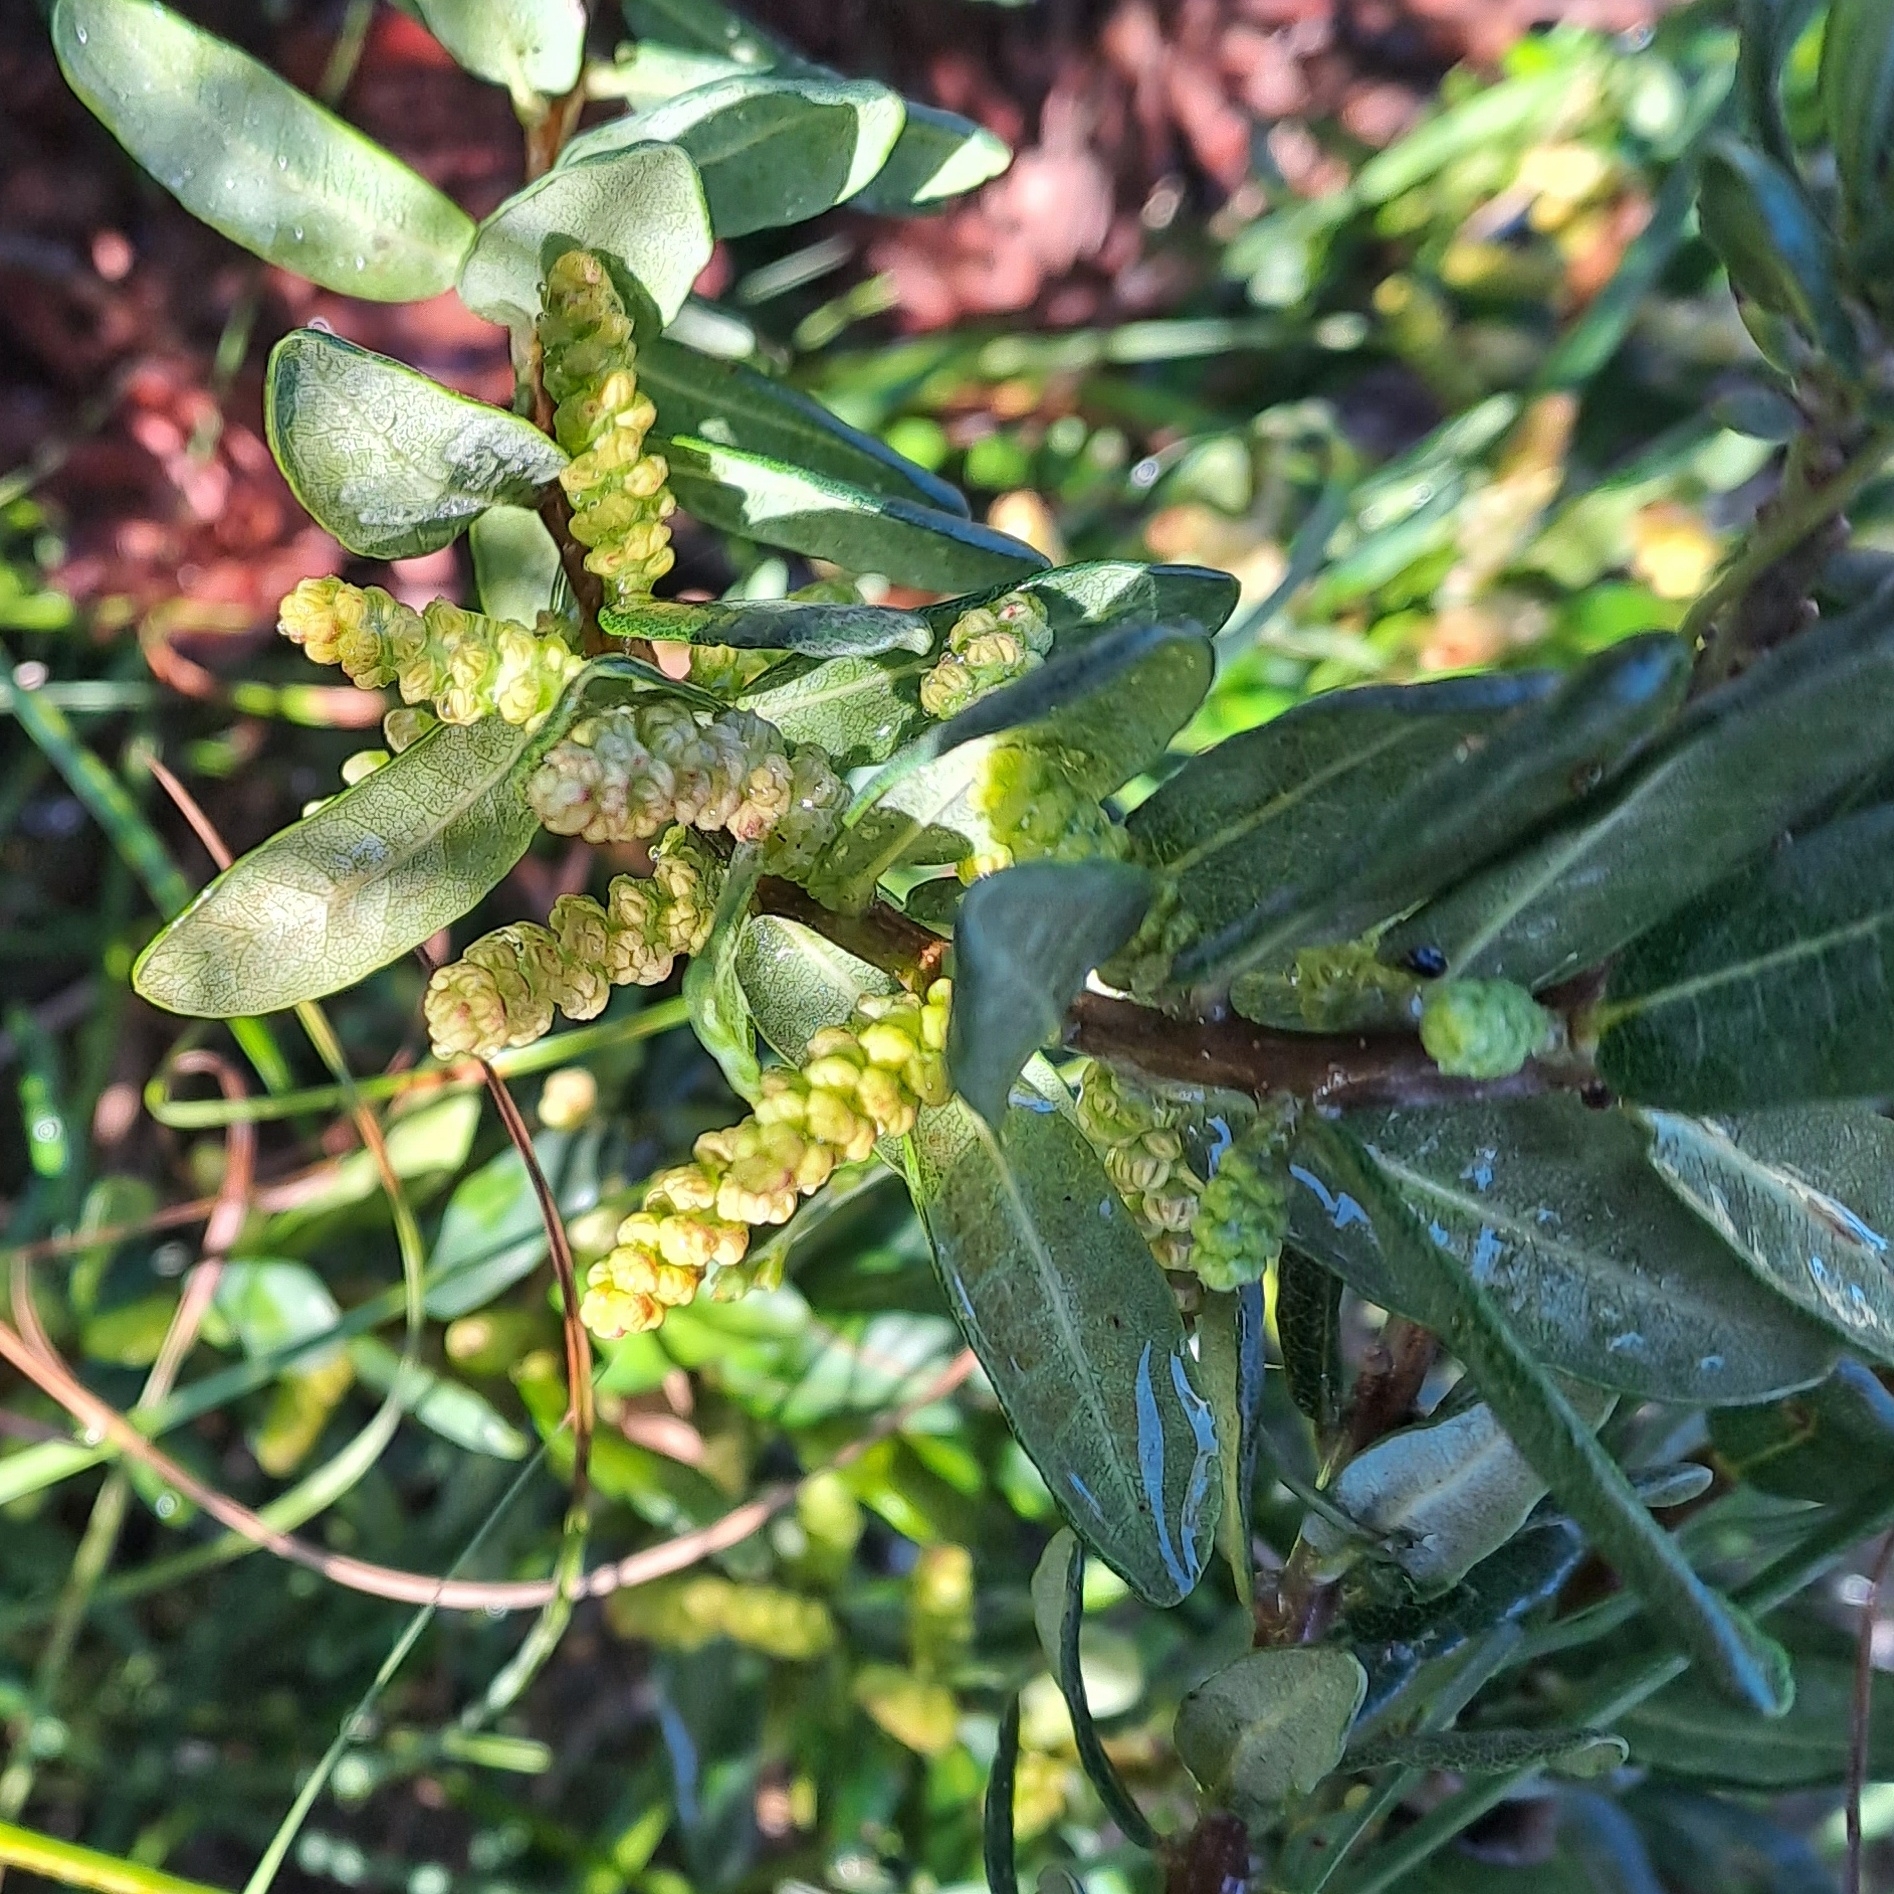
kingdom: Plantae
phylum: Tracheophyta
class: Magnoliopsida
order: Fagales
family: Myricaceae
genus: Morella
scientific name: Morella humilis
